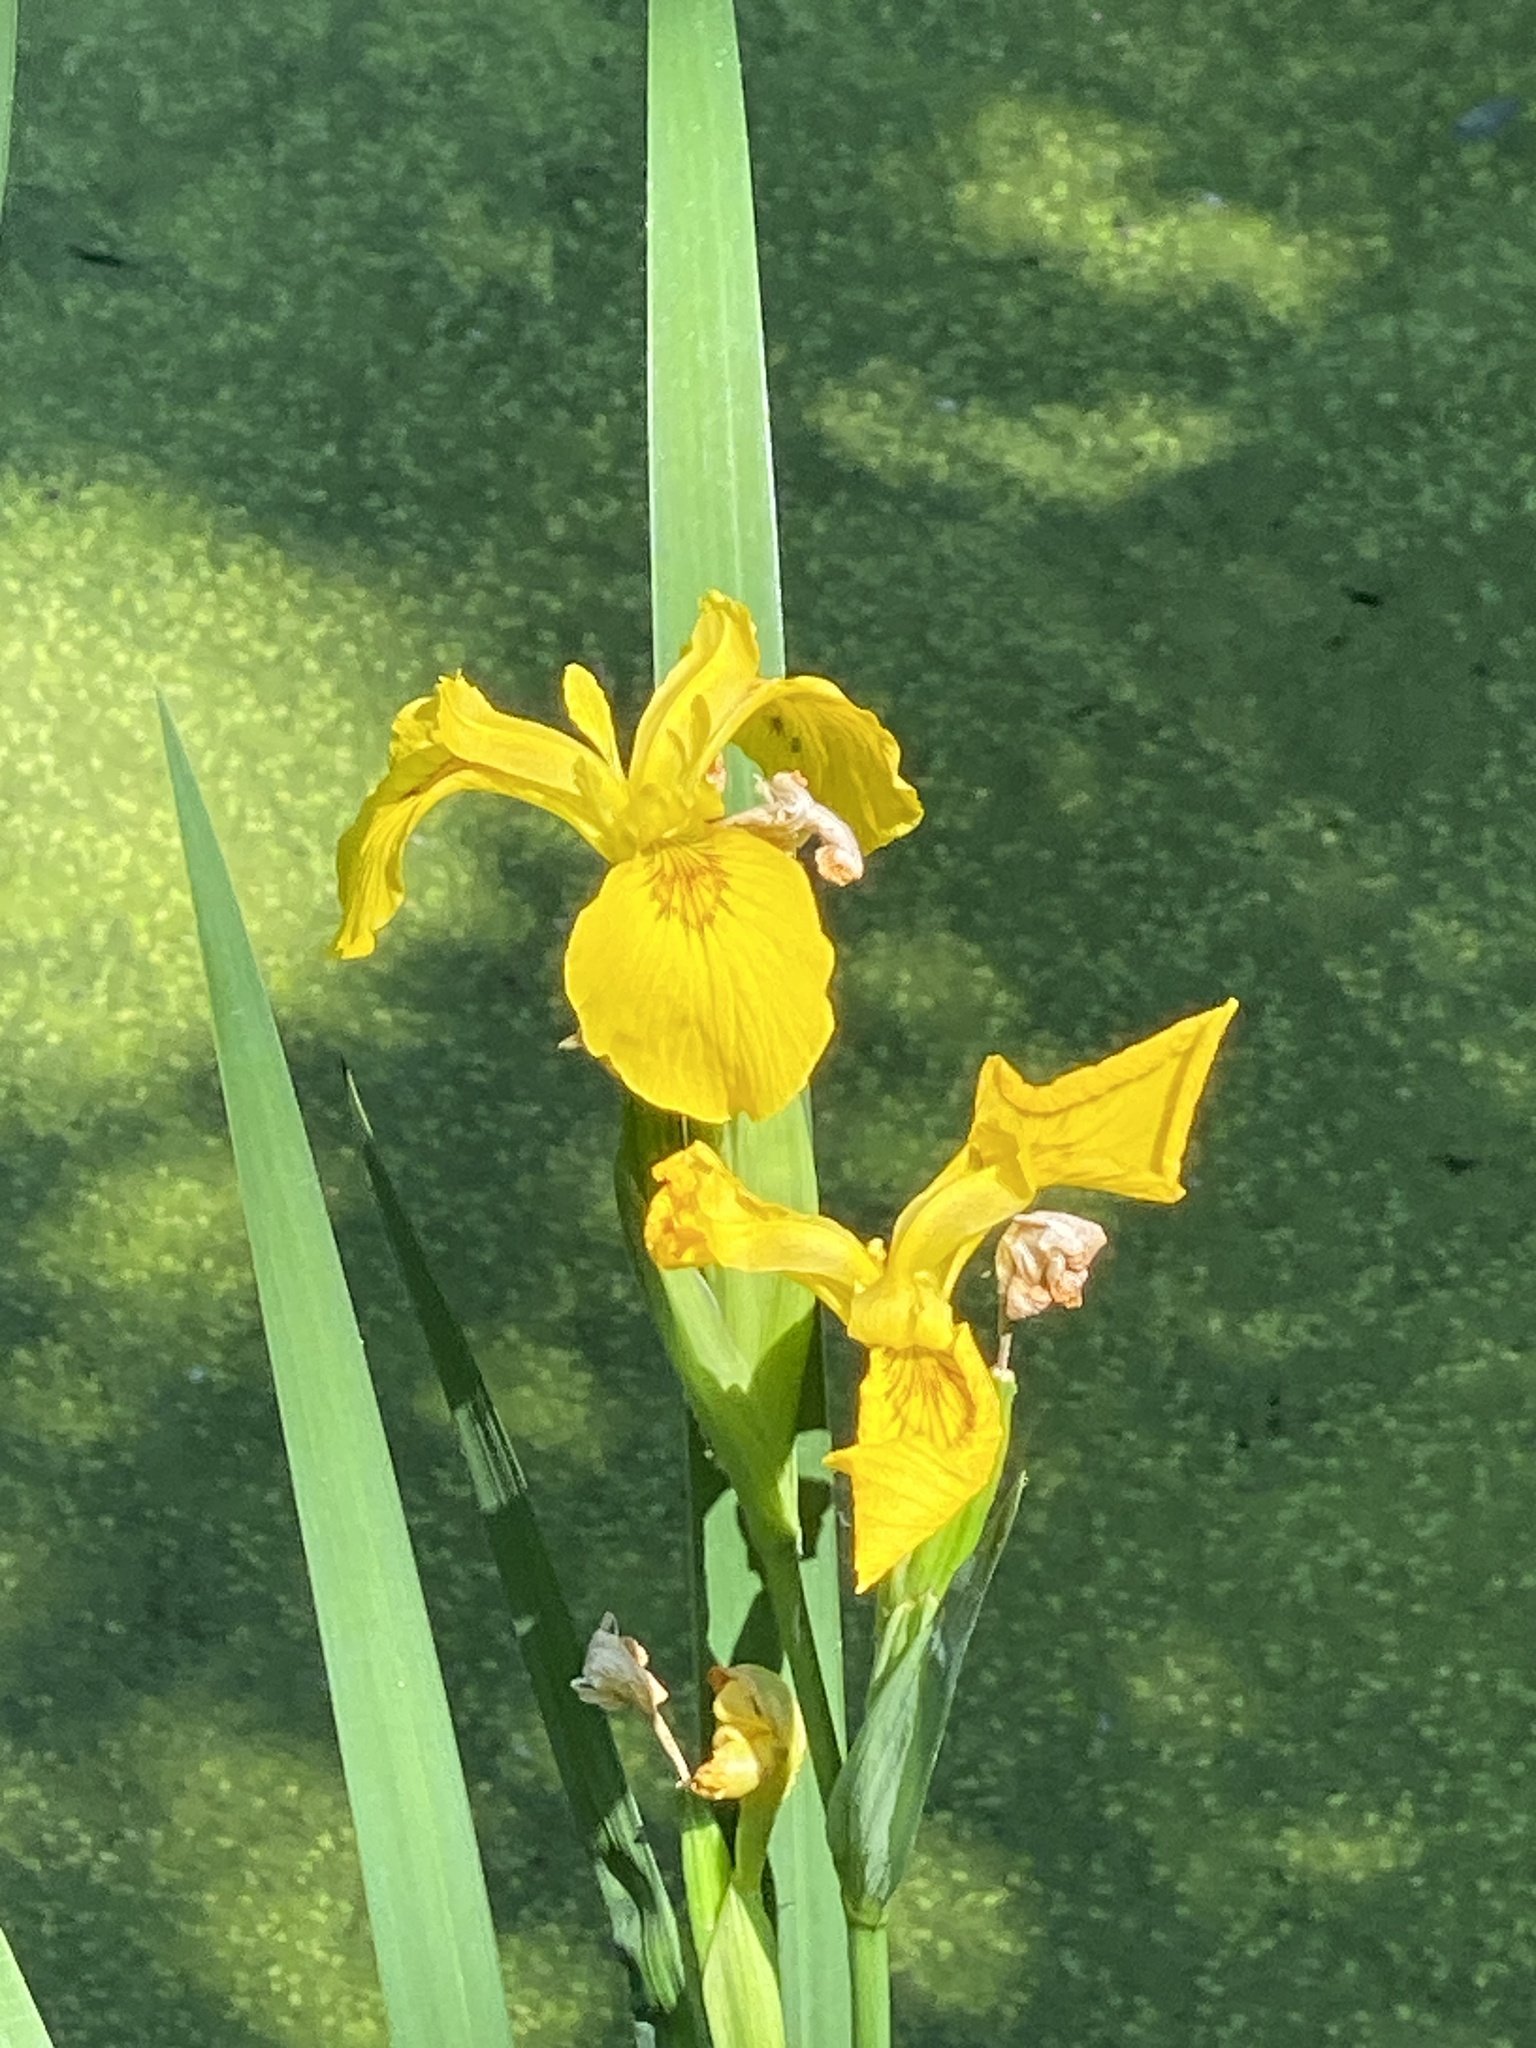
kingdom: Plantae
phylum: Tracheophyta
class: Liliopsida
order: Asparagales
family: Iridaceae
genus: Iris
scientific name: Iris pseudacorus
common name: Yellow flag
